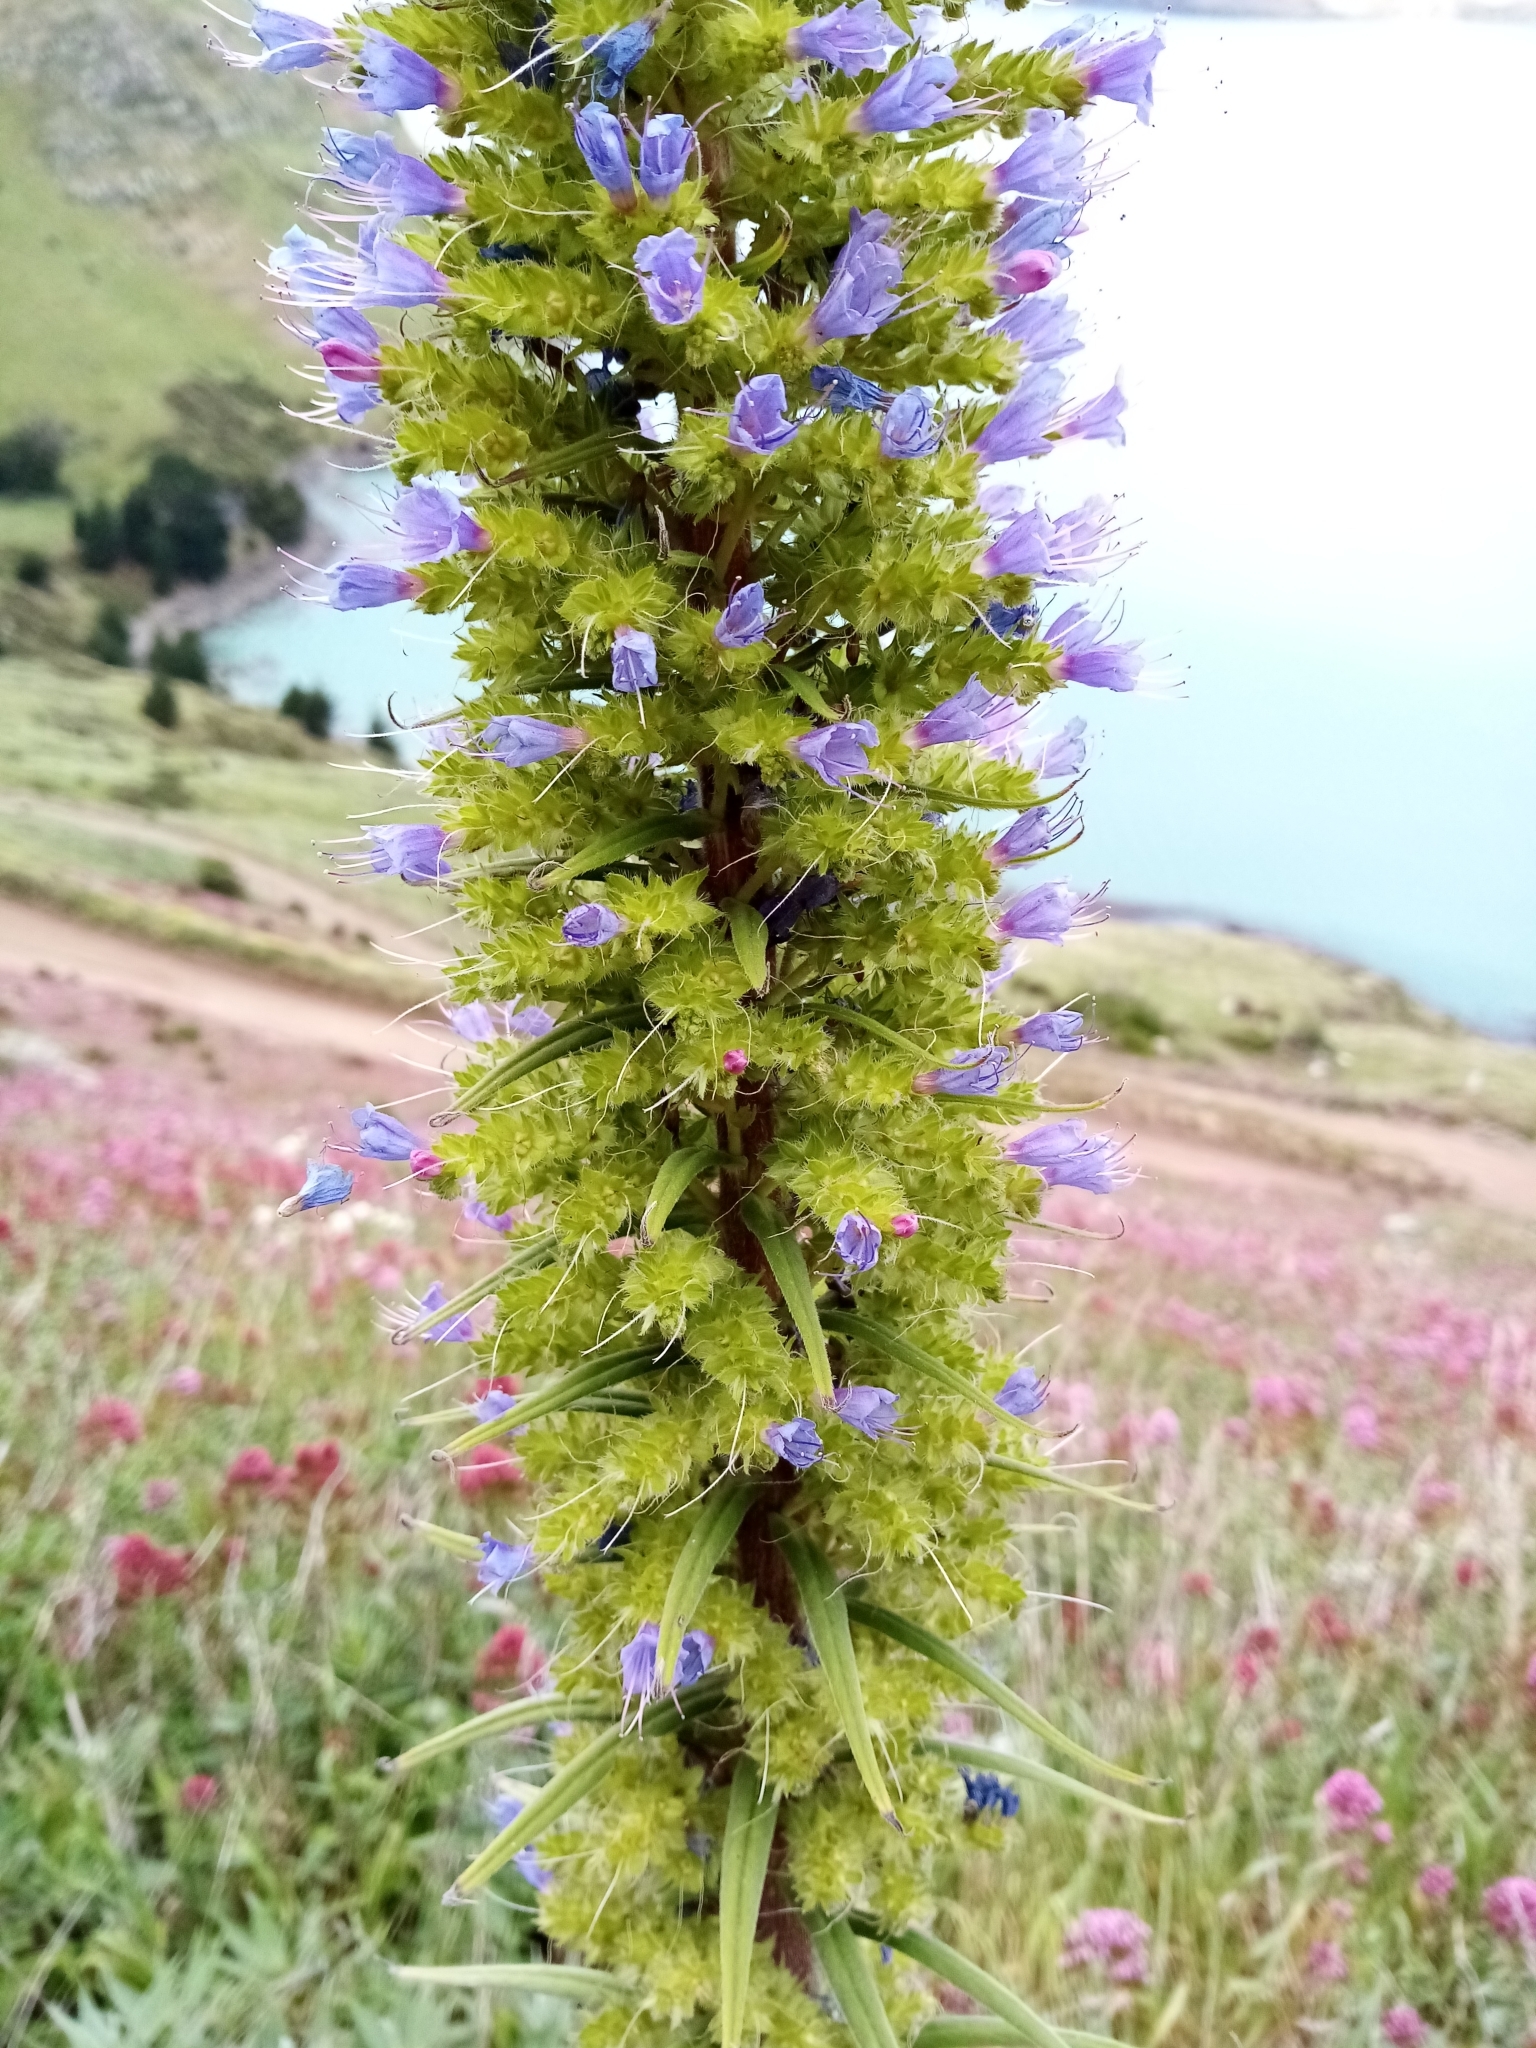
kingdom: Plantae
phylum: Tracheophyta
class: Magnoliopsida
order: Boraginales
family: Boraginaceae
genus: Echium
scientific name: Echium pininana
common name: Giant viper's-bugloss
